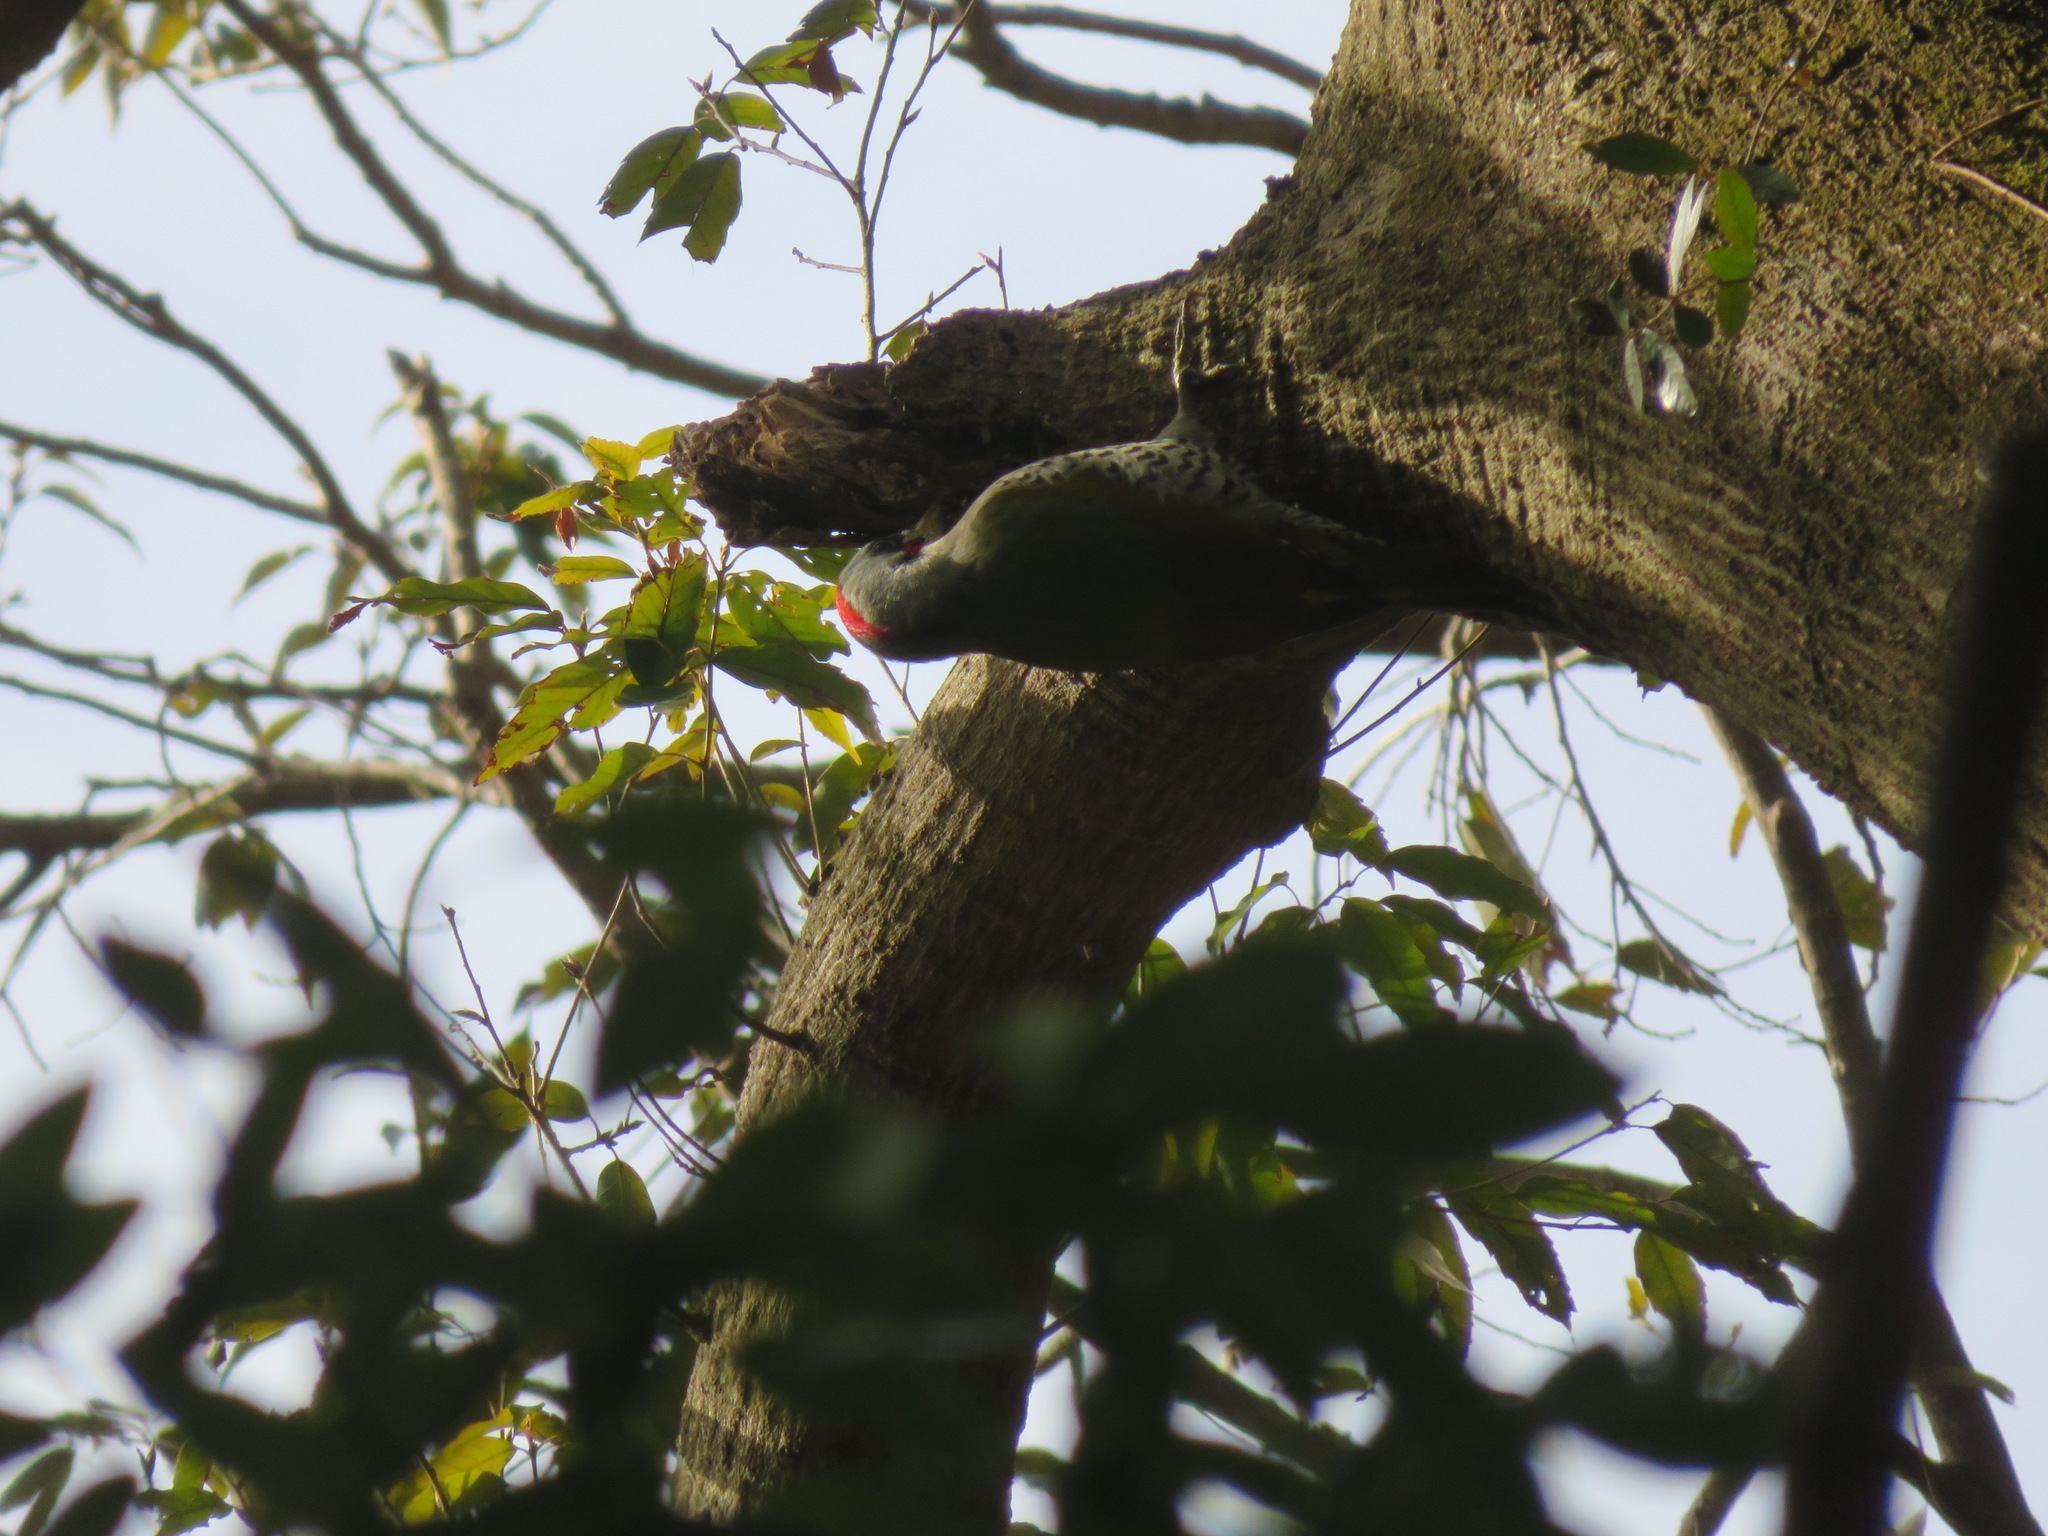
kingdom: Animalia
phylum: Chordata
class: Aves
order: Piciformes
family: Picidae
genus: Picus
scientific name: Picus awokera
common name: Japanese green woodpecker
